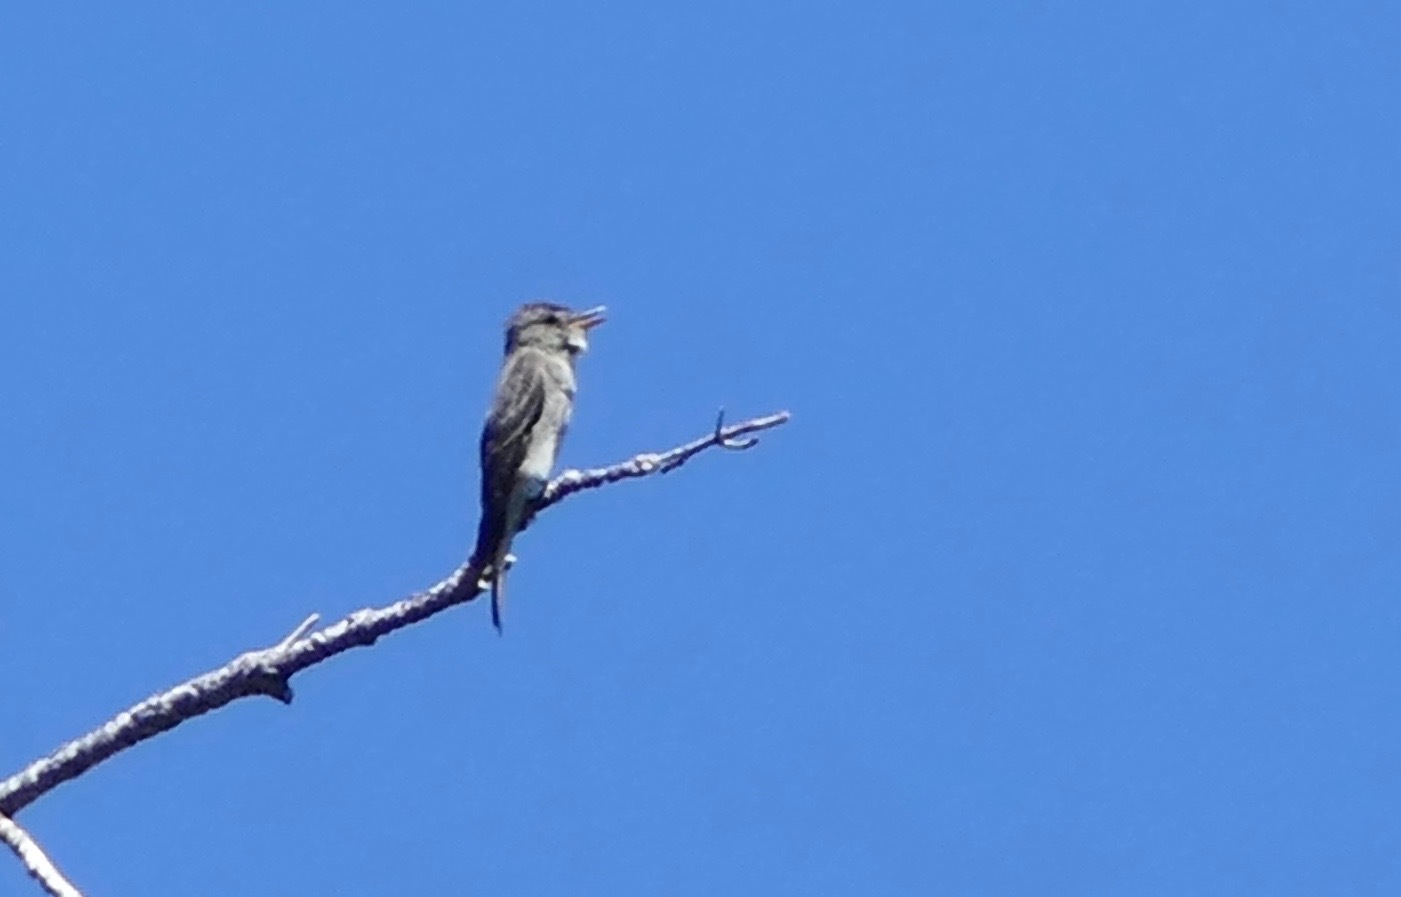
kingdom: Animalia
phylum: Chordata
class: Aves
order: Passeriformes
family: Tyrannidae
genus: Contopus
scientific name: Contopus cooperi
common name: Olive-sided flycatcher
